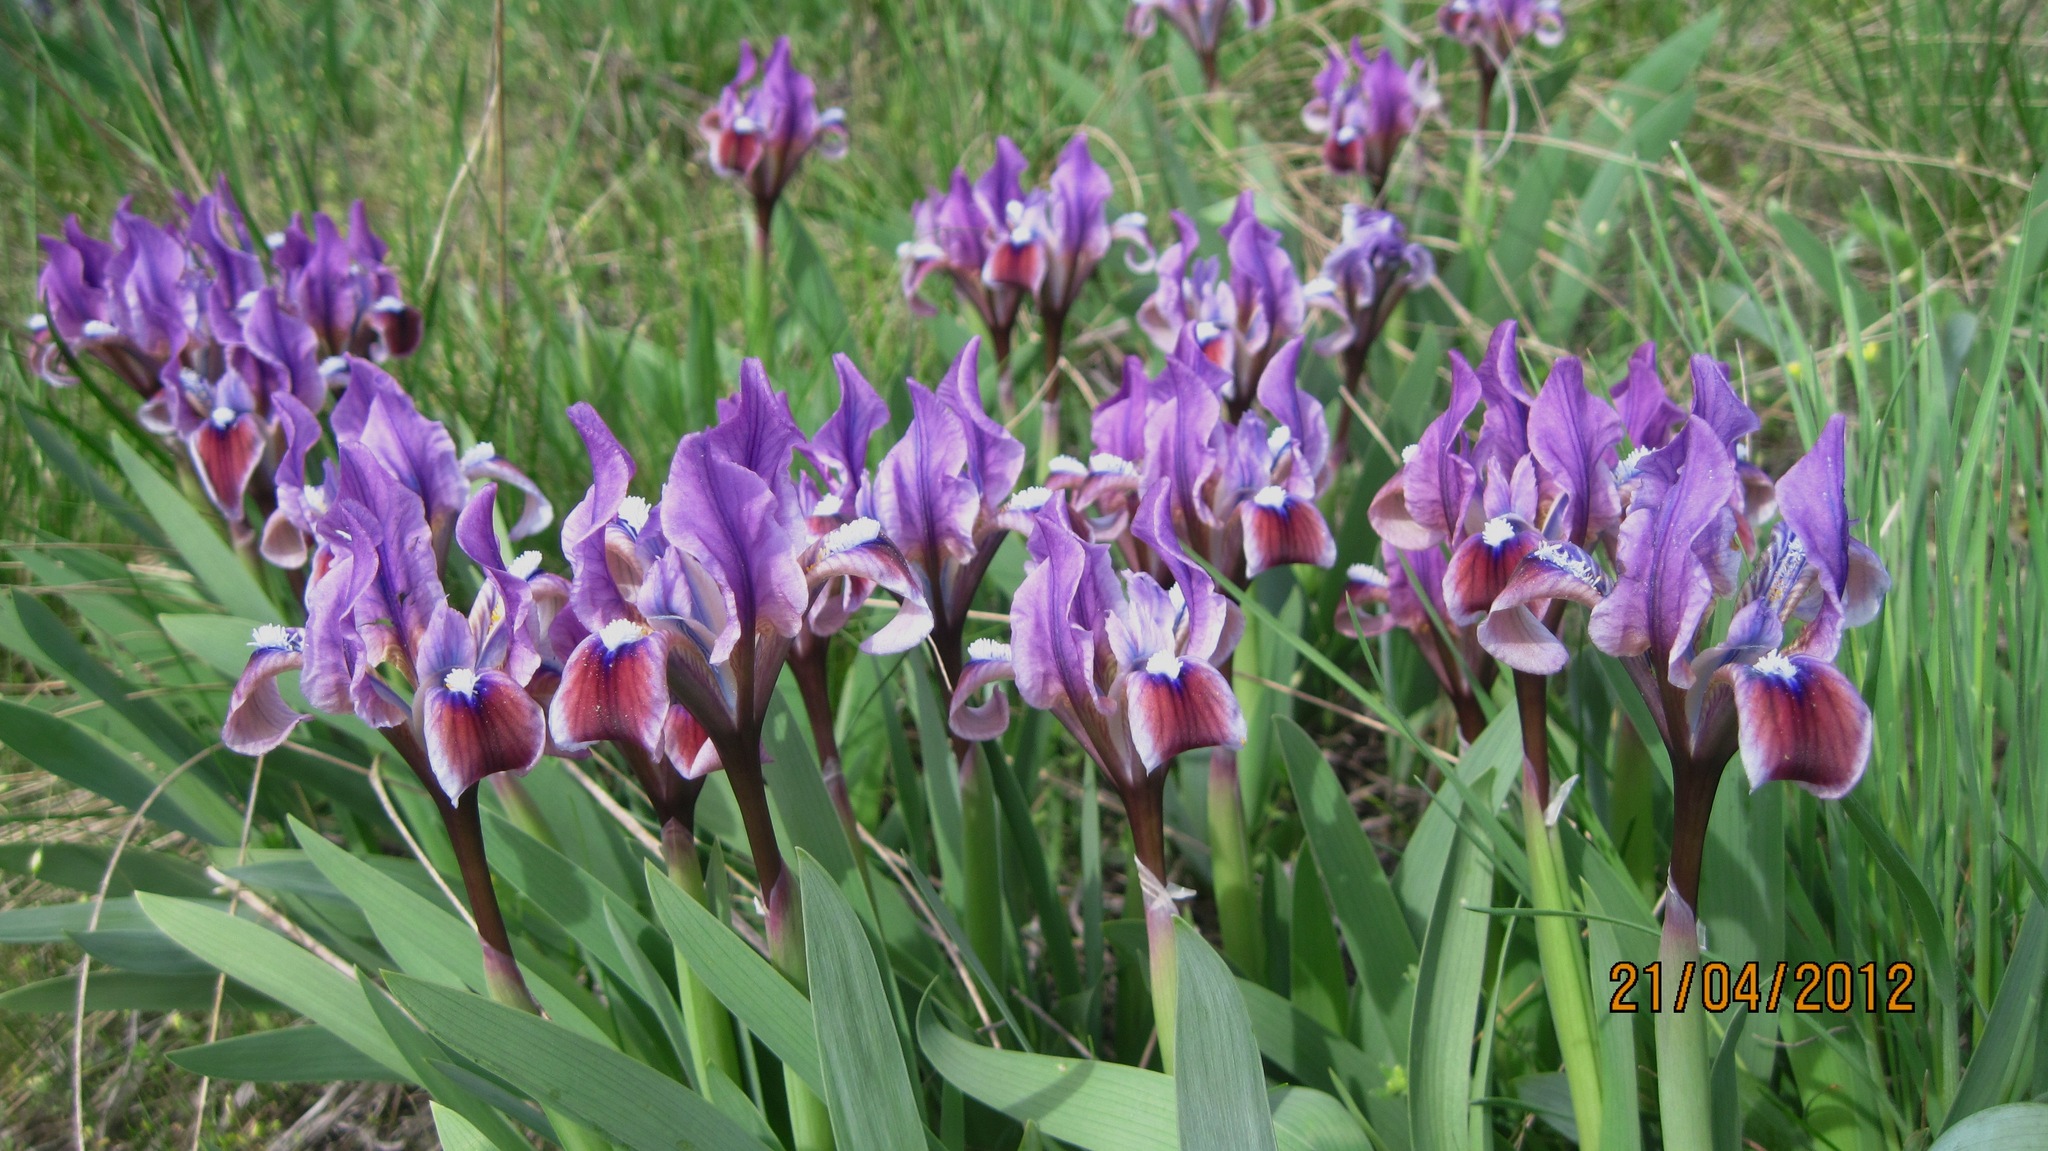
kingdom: Plantae
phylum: Tracheophyta
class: Liliopsida
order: Asparagales
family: Iridaceae
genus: Iris
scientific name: Iris pumila
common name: Dwarf iris
